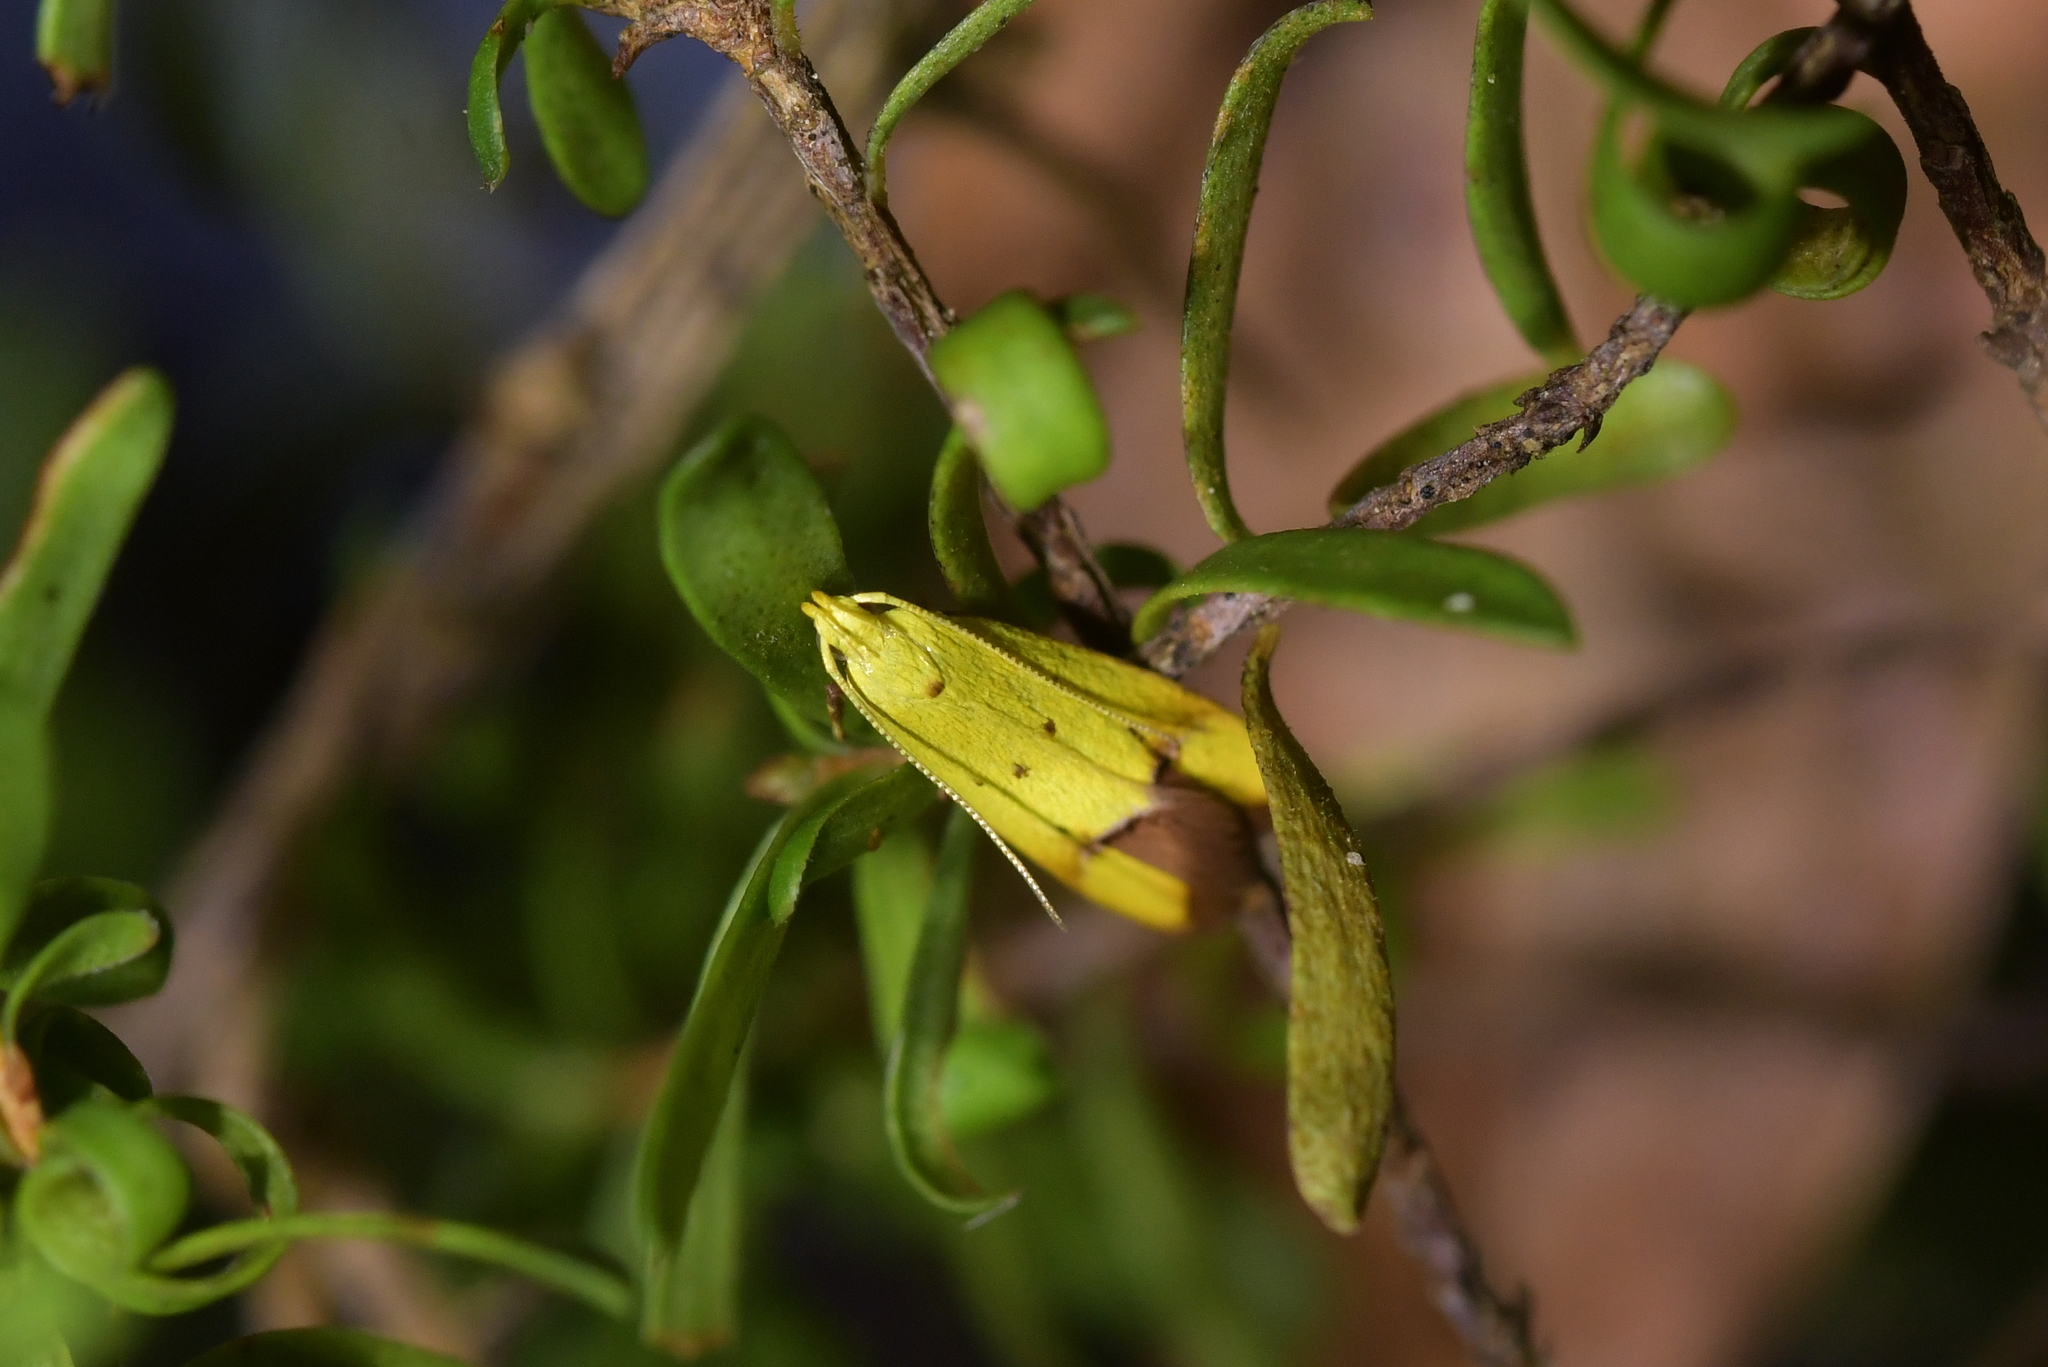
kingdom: Animalia
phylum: Arthropoda
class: Insecta
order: Lepidoptera
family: Oecophoridae
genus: Gymnobathra
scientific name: Gymnobathra flavidella
